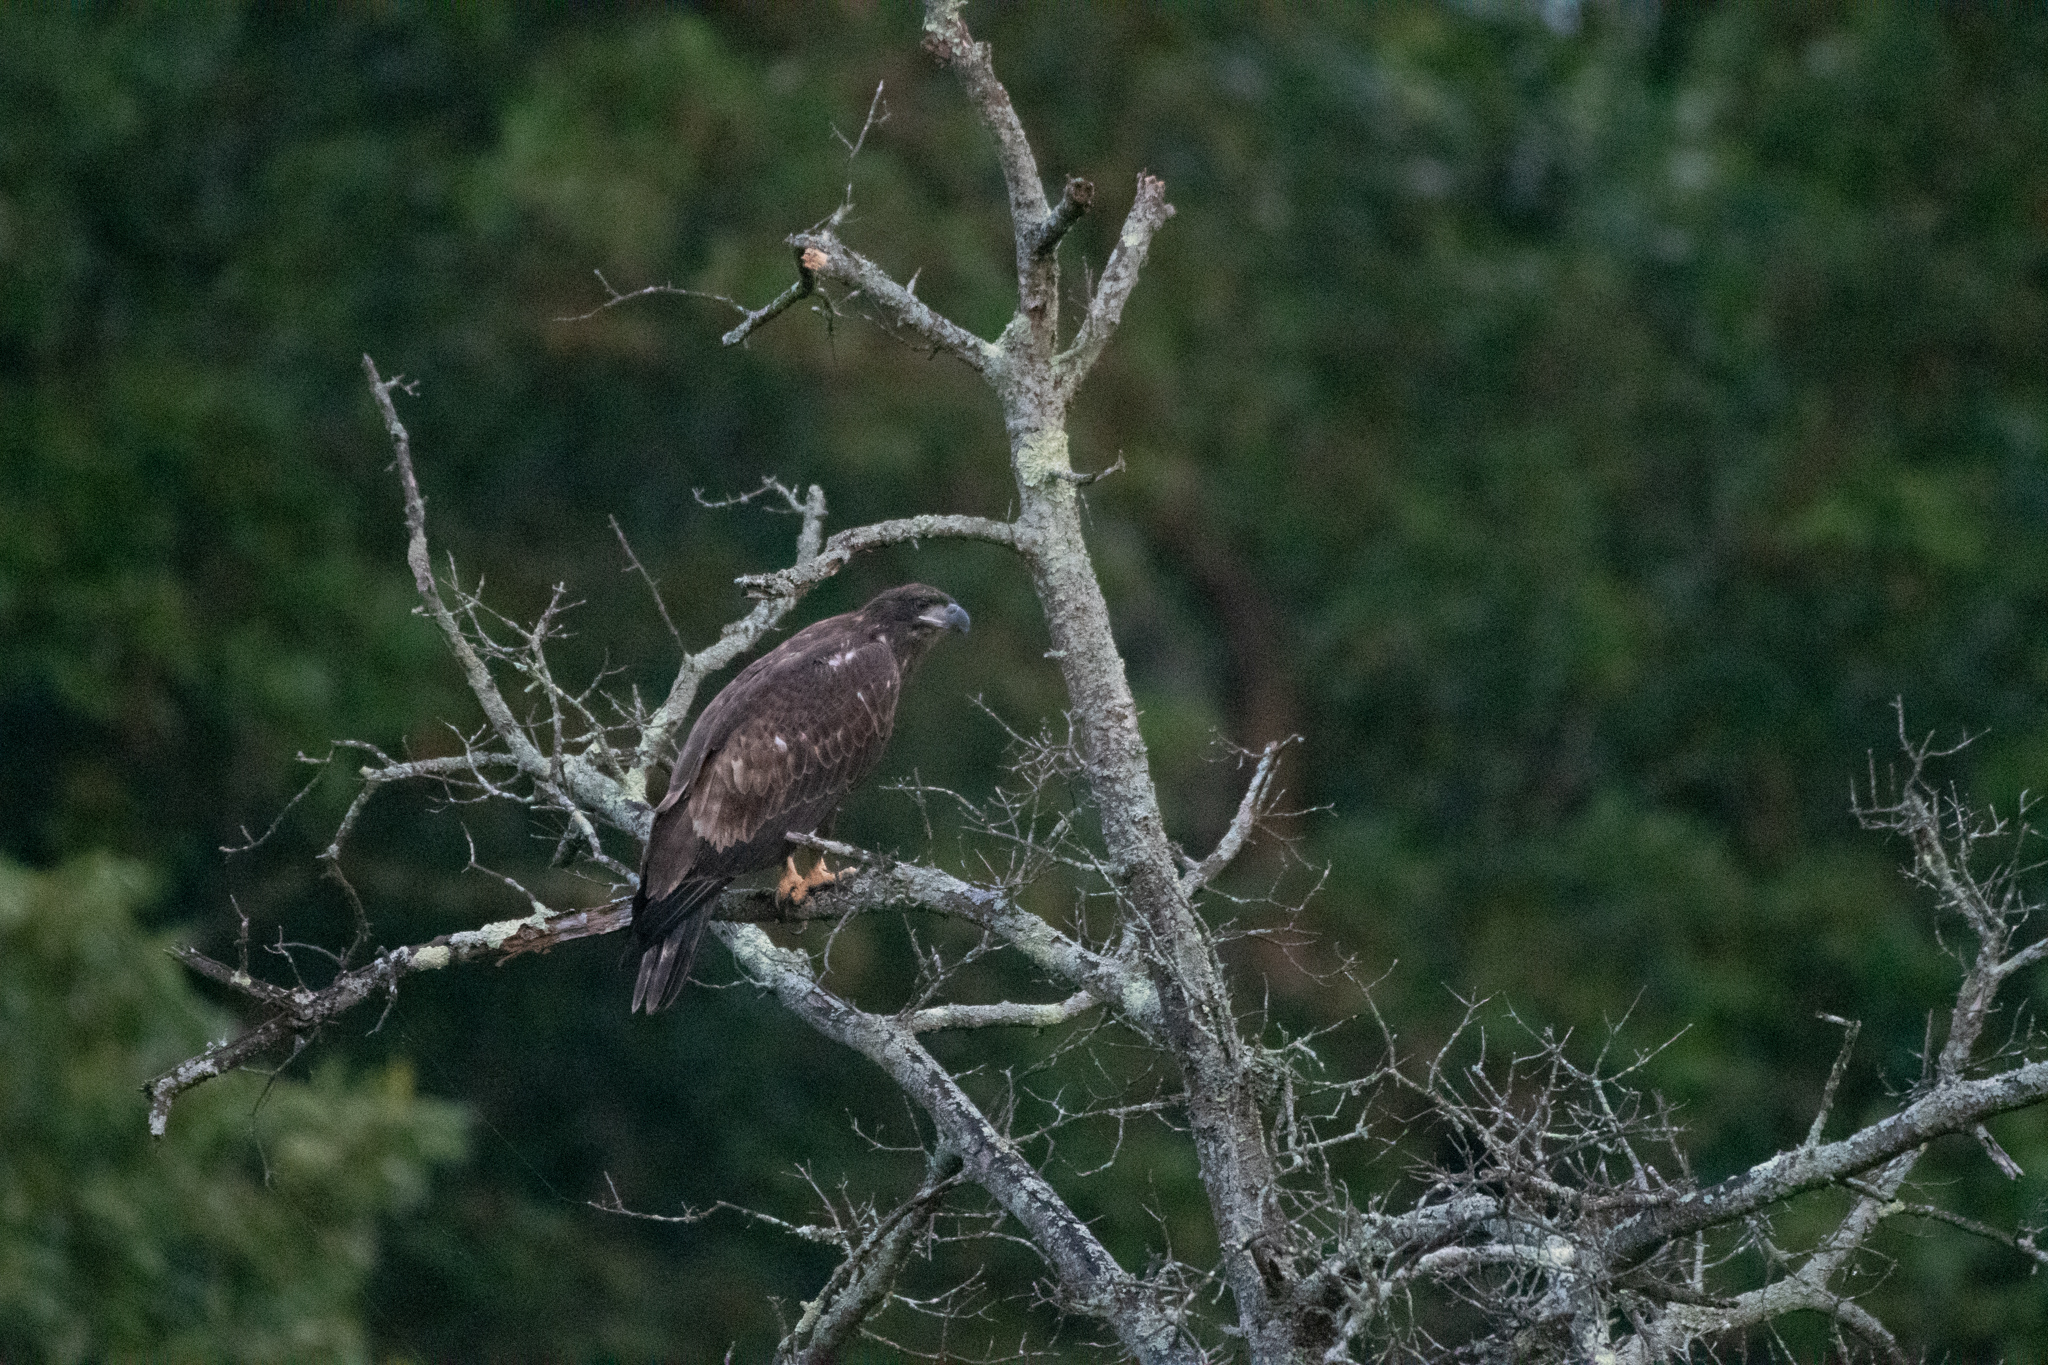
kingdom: Animalia
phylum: Chordata
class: Aves
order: Accipitriformes
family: Accipitridae
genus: Haliaeetus
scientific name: Haliaeetus leucocephalus
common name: Bald eagle
